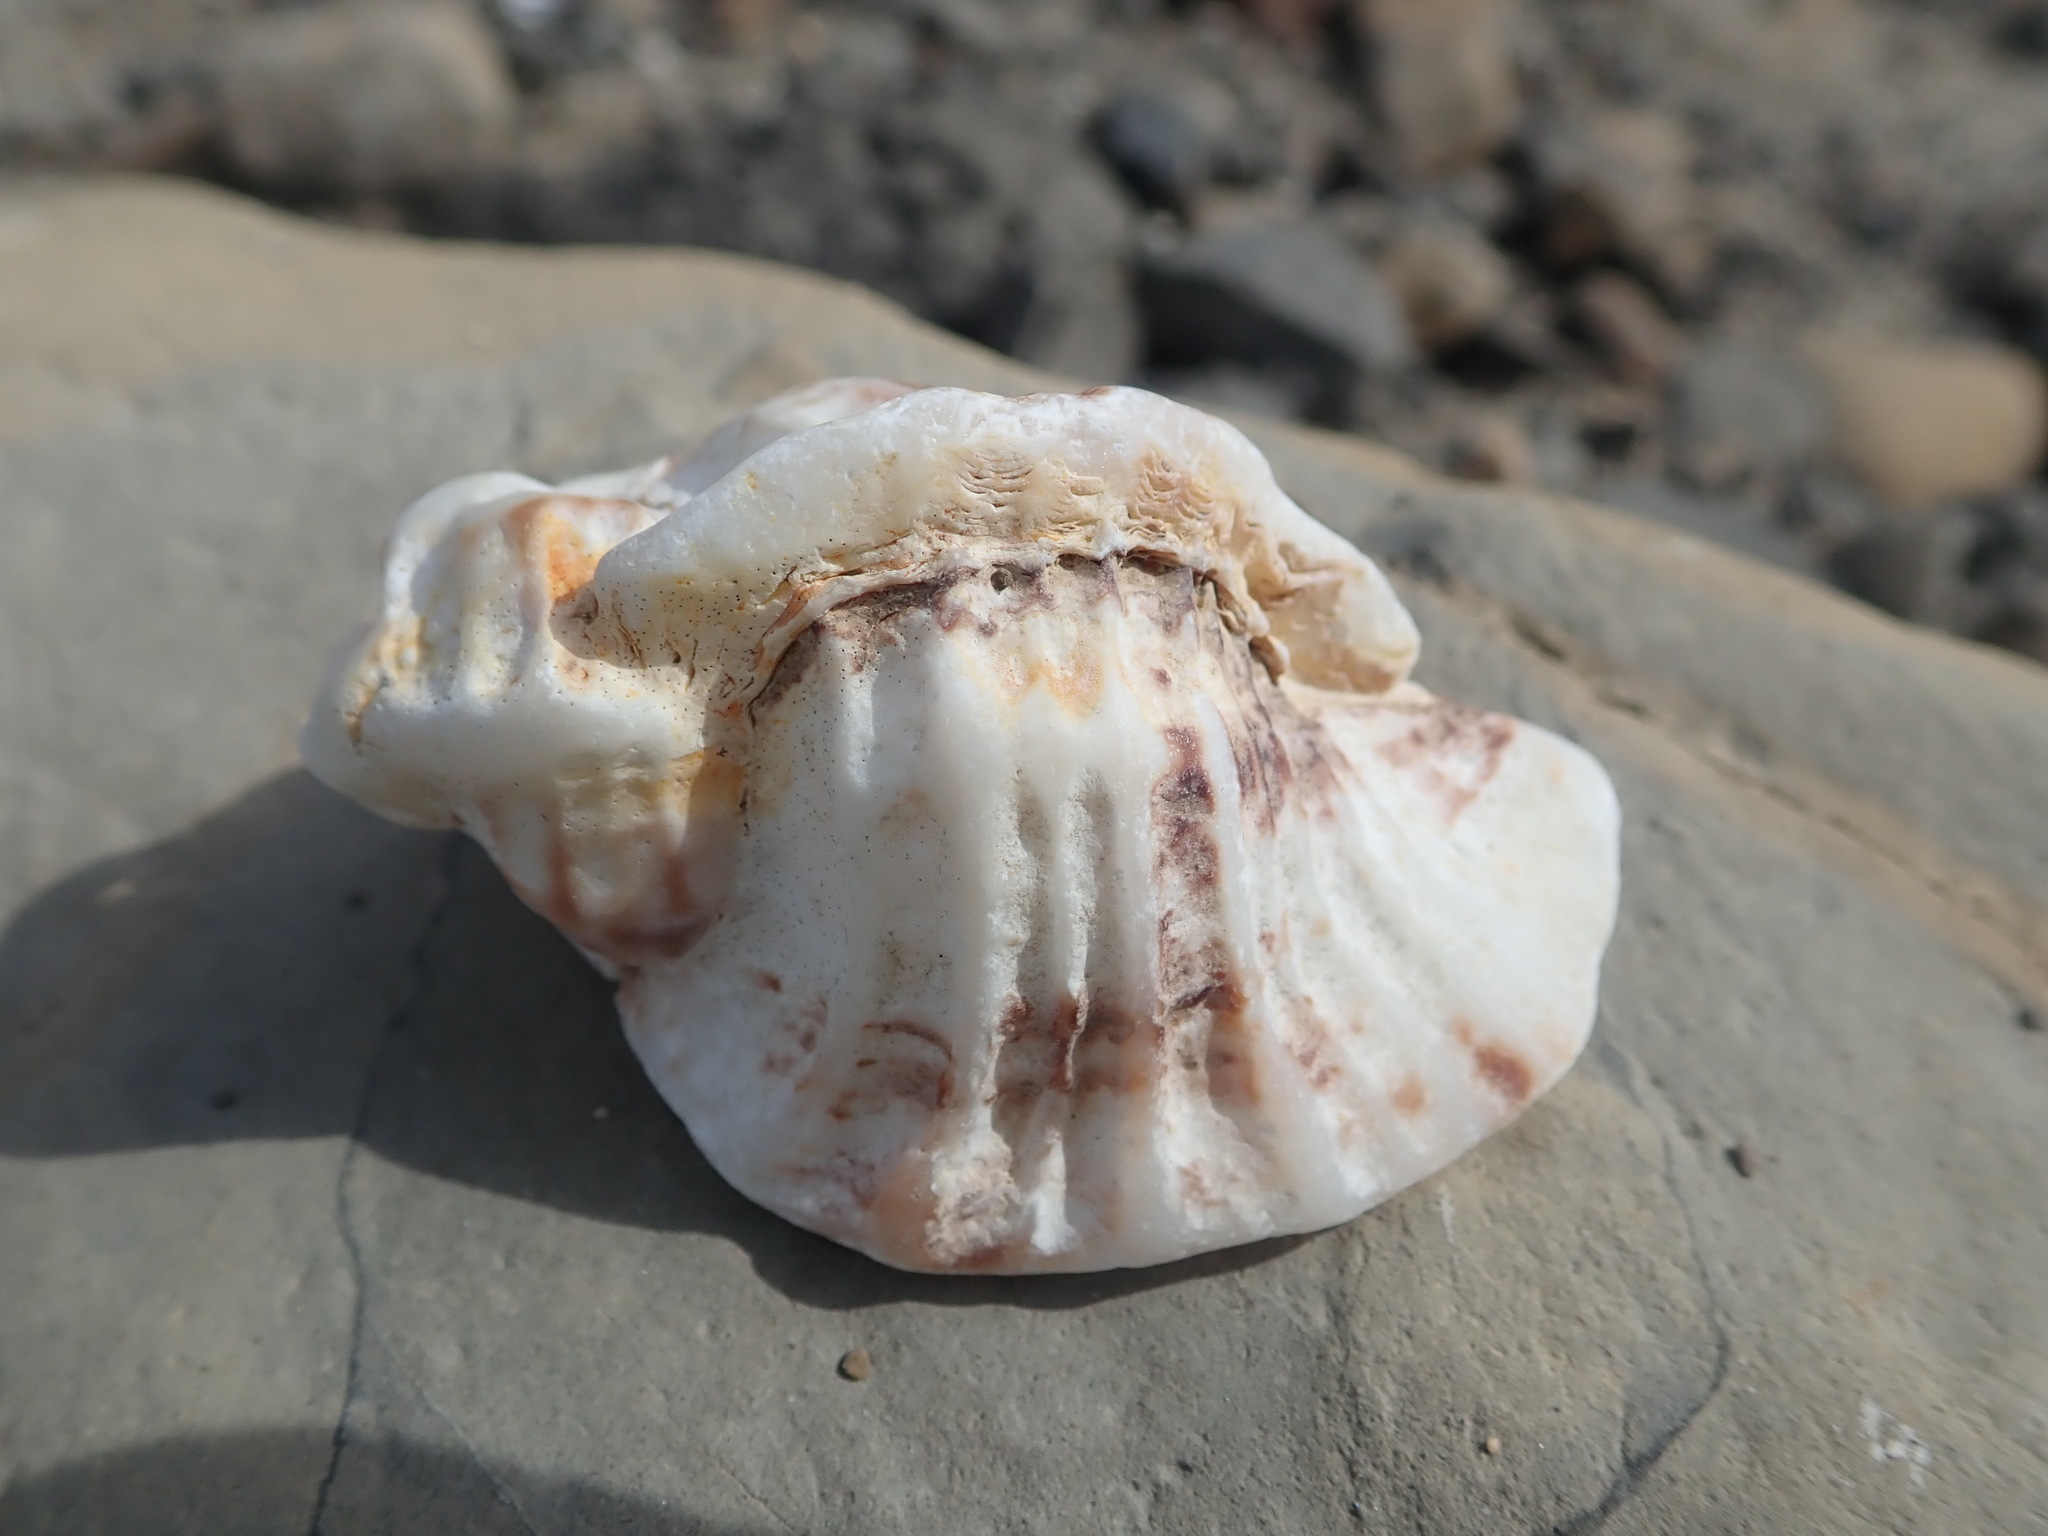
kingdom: Animalia
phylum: Mollusca
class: Gastropoda
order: Neogastropoda
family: Muricidae
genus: Ceratostoma
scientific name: Ceratostoma foliatum
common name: Foliate thorn purpura
